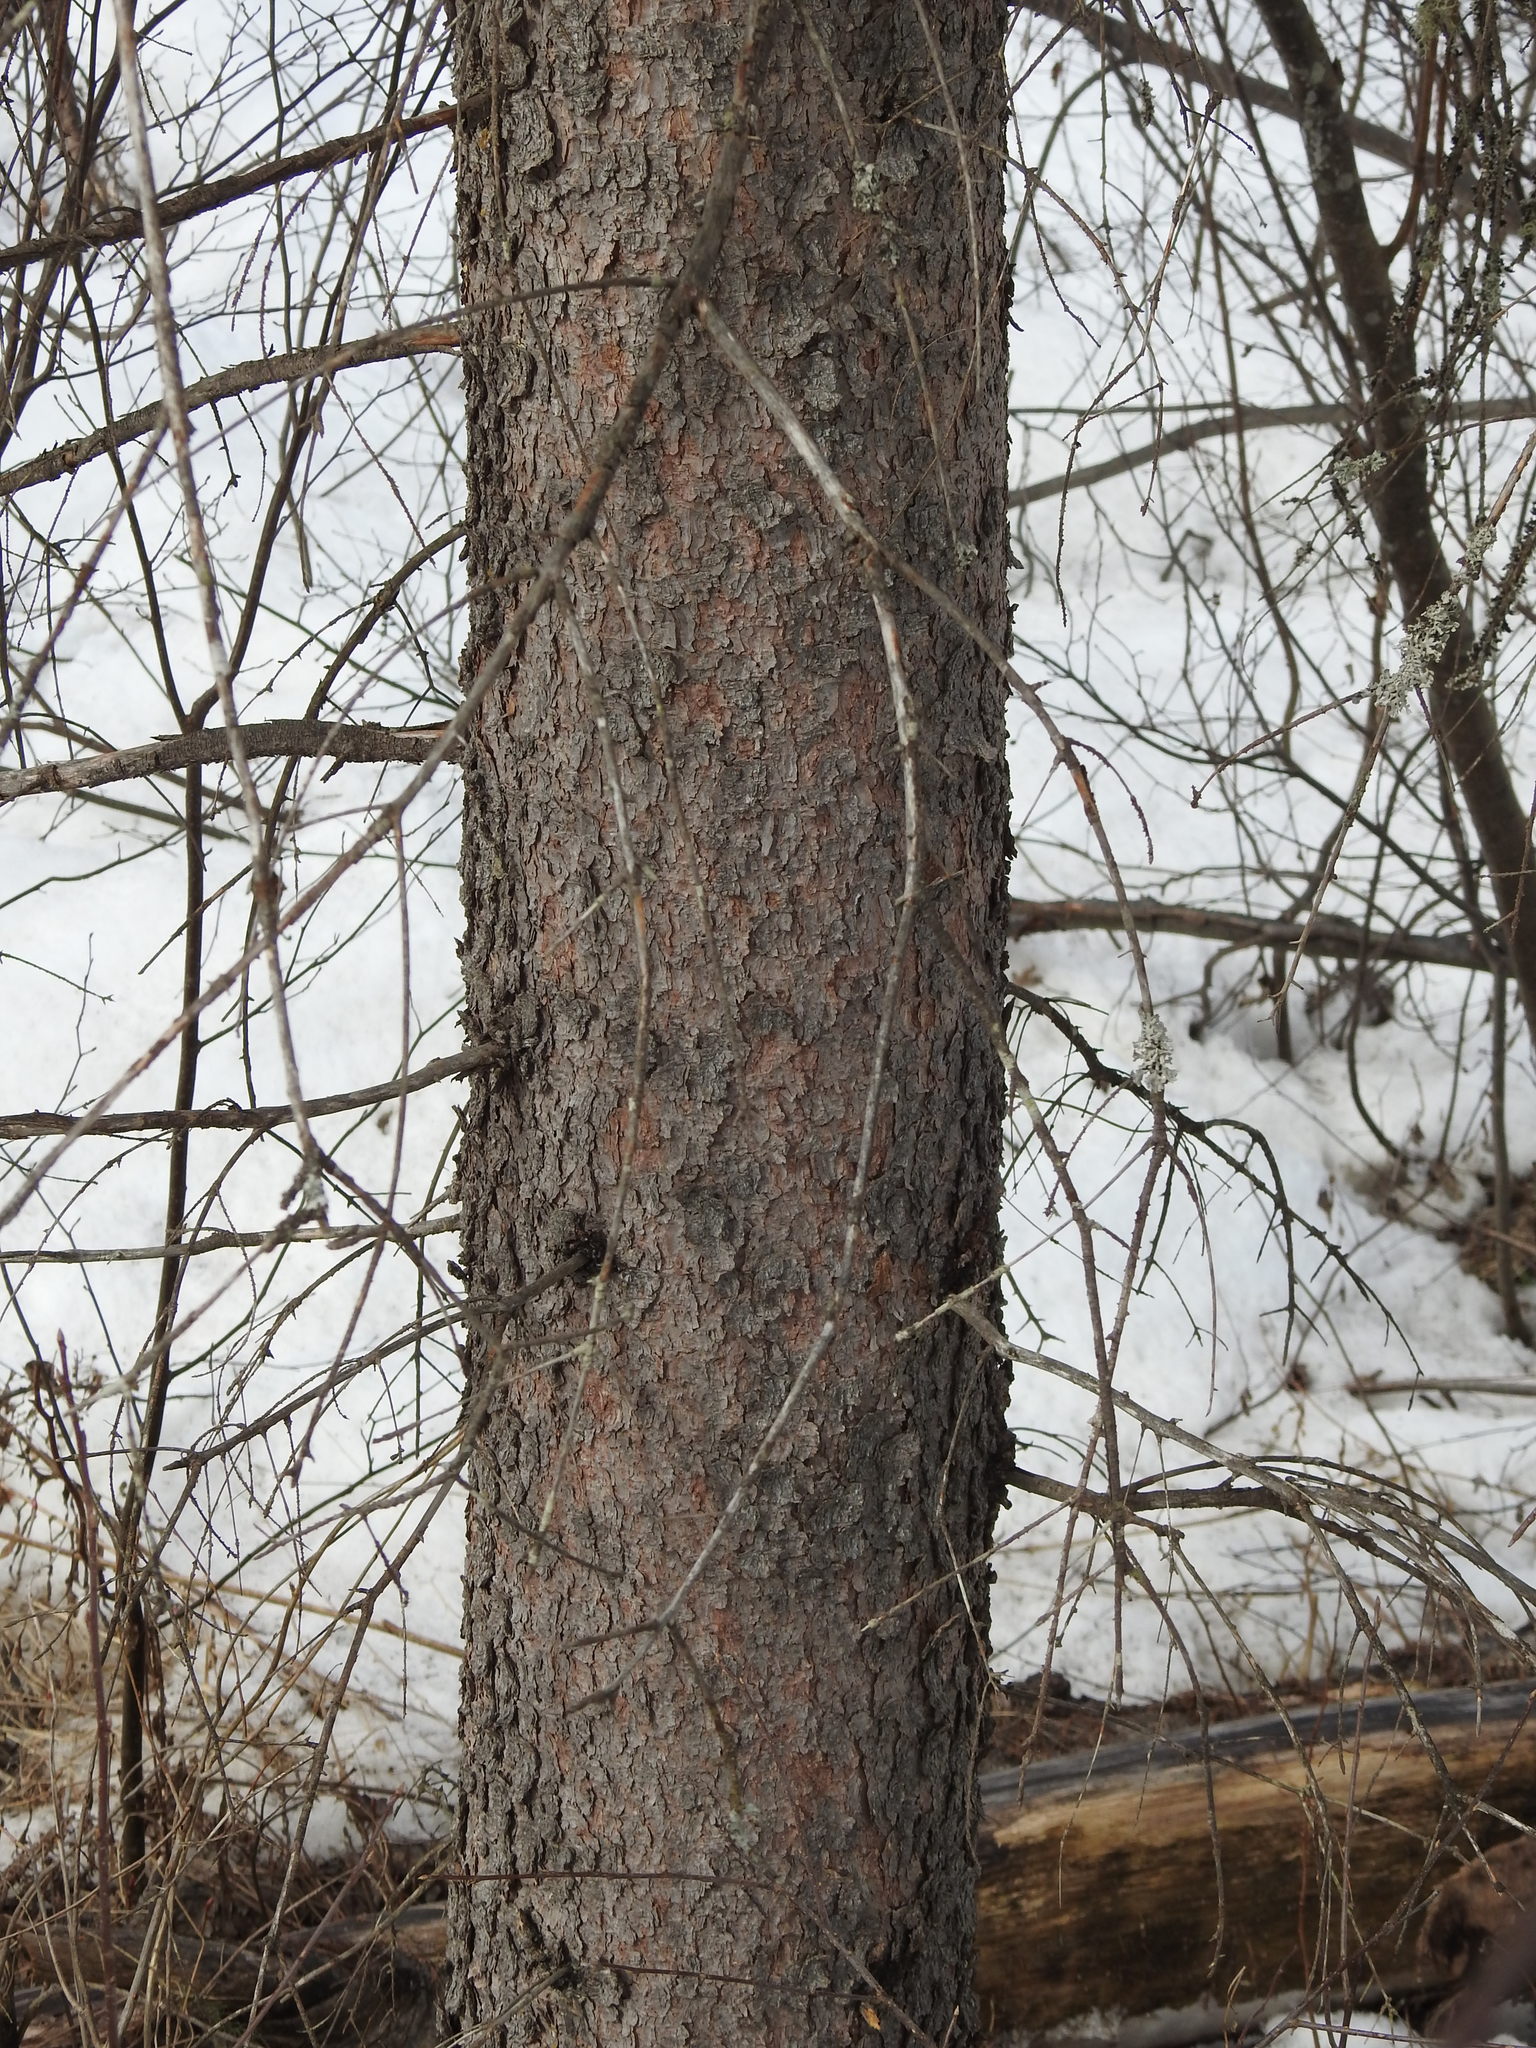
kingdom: Plantae
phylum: Tracheophyta
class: Pinopsida
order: Pinales
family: Pinaceae
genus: Picea
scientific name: Picea glauca
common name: White spruce
